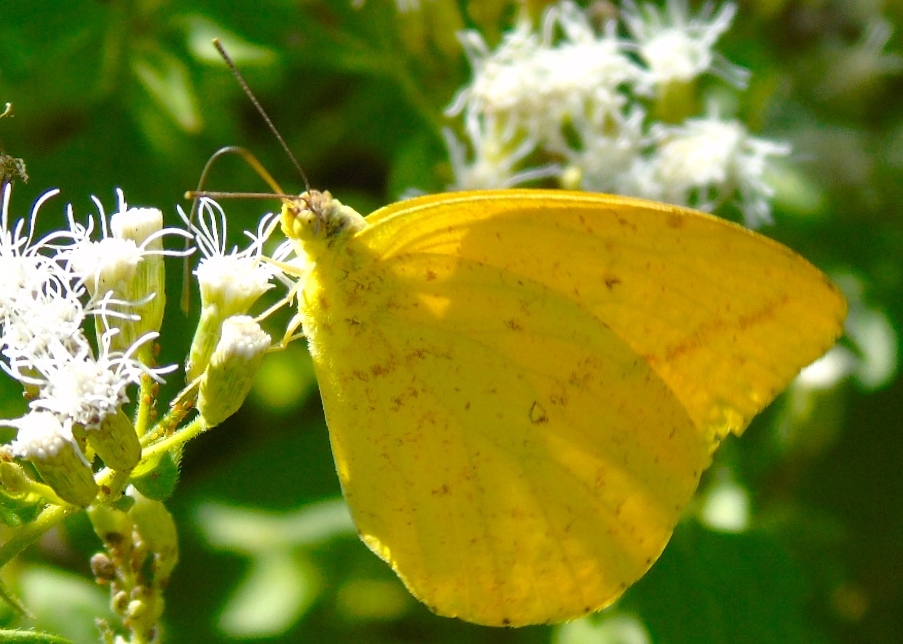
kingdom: Animalia
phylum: Arthropoda
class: Insecta
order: Lepidoptera
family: Pieridae
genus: Phoebis
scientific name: Phoebis sennae
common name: Cloudless sulphur
